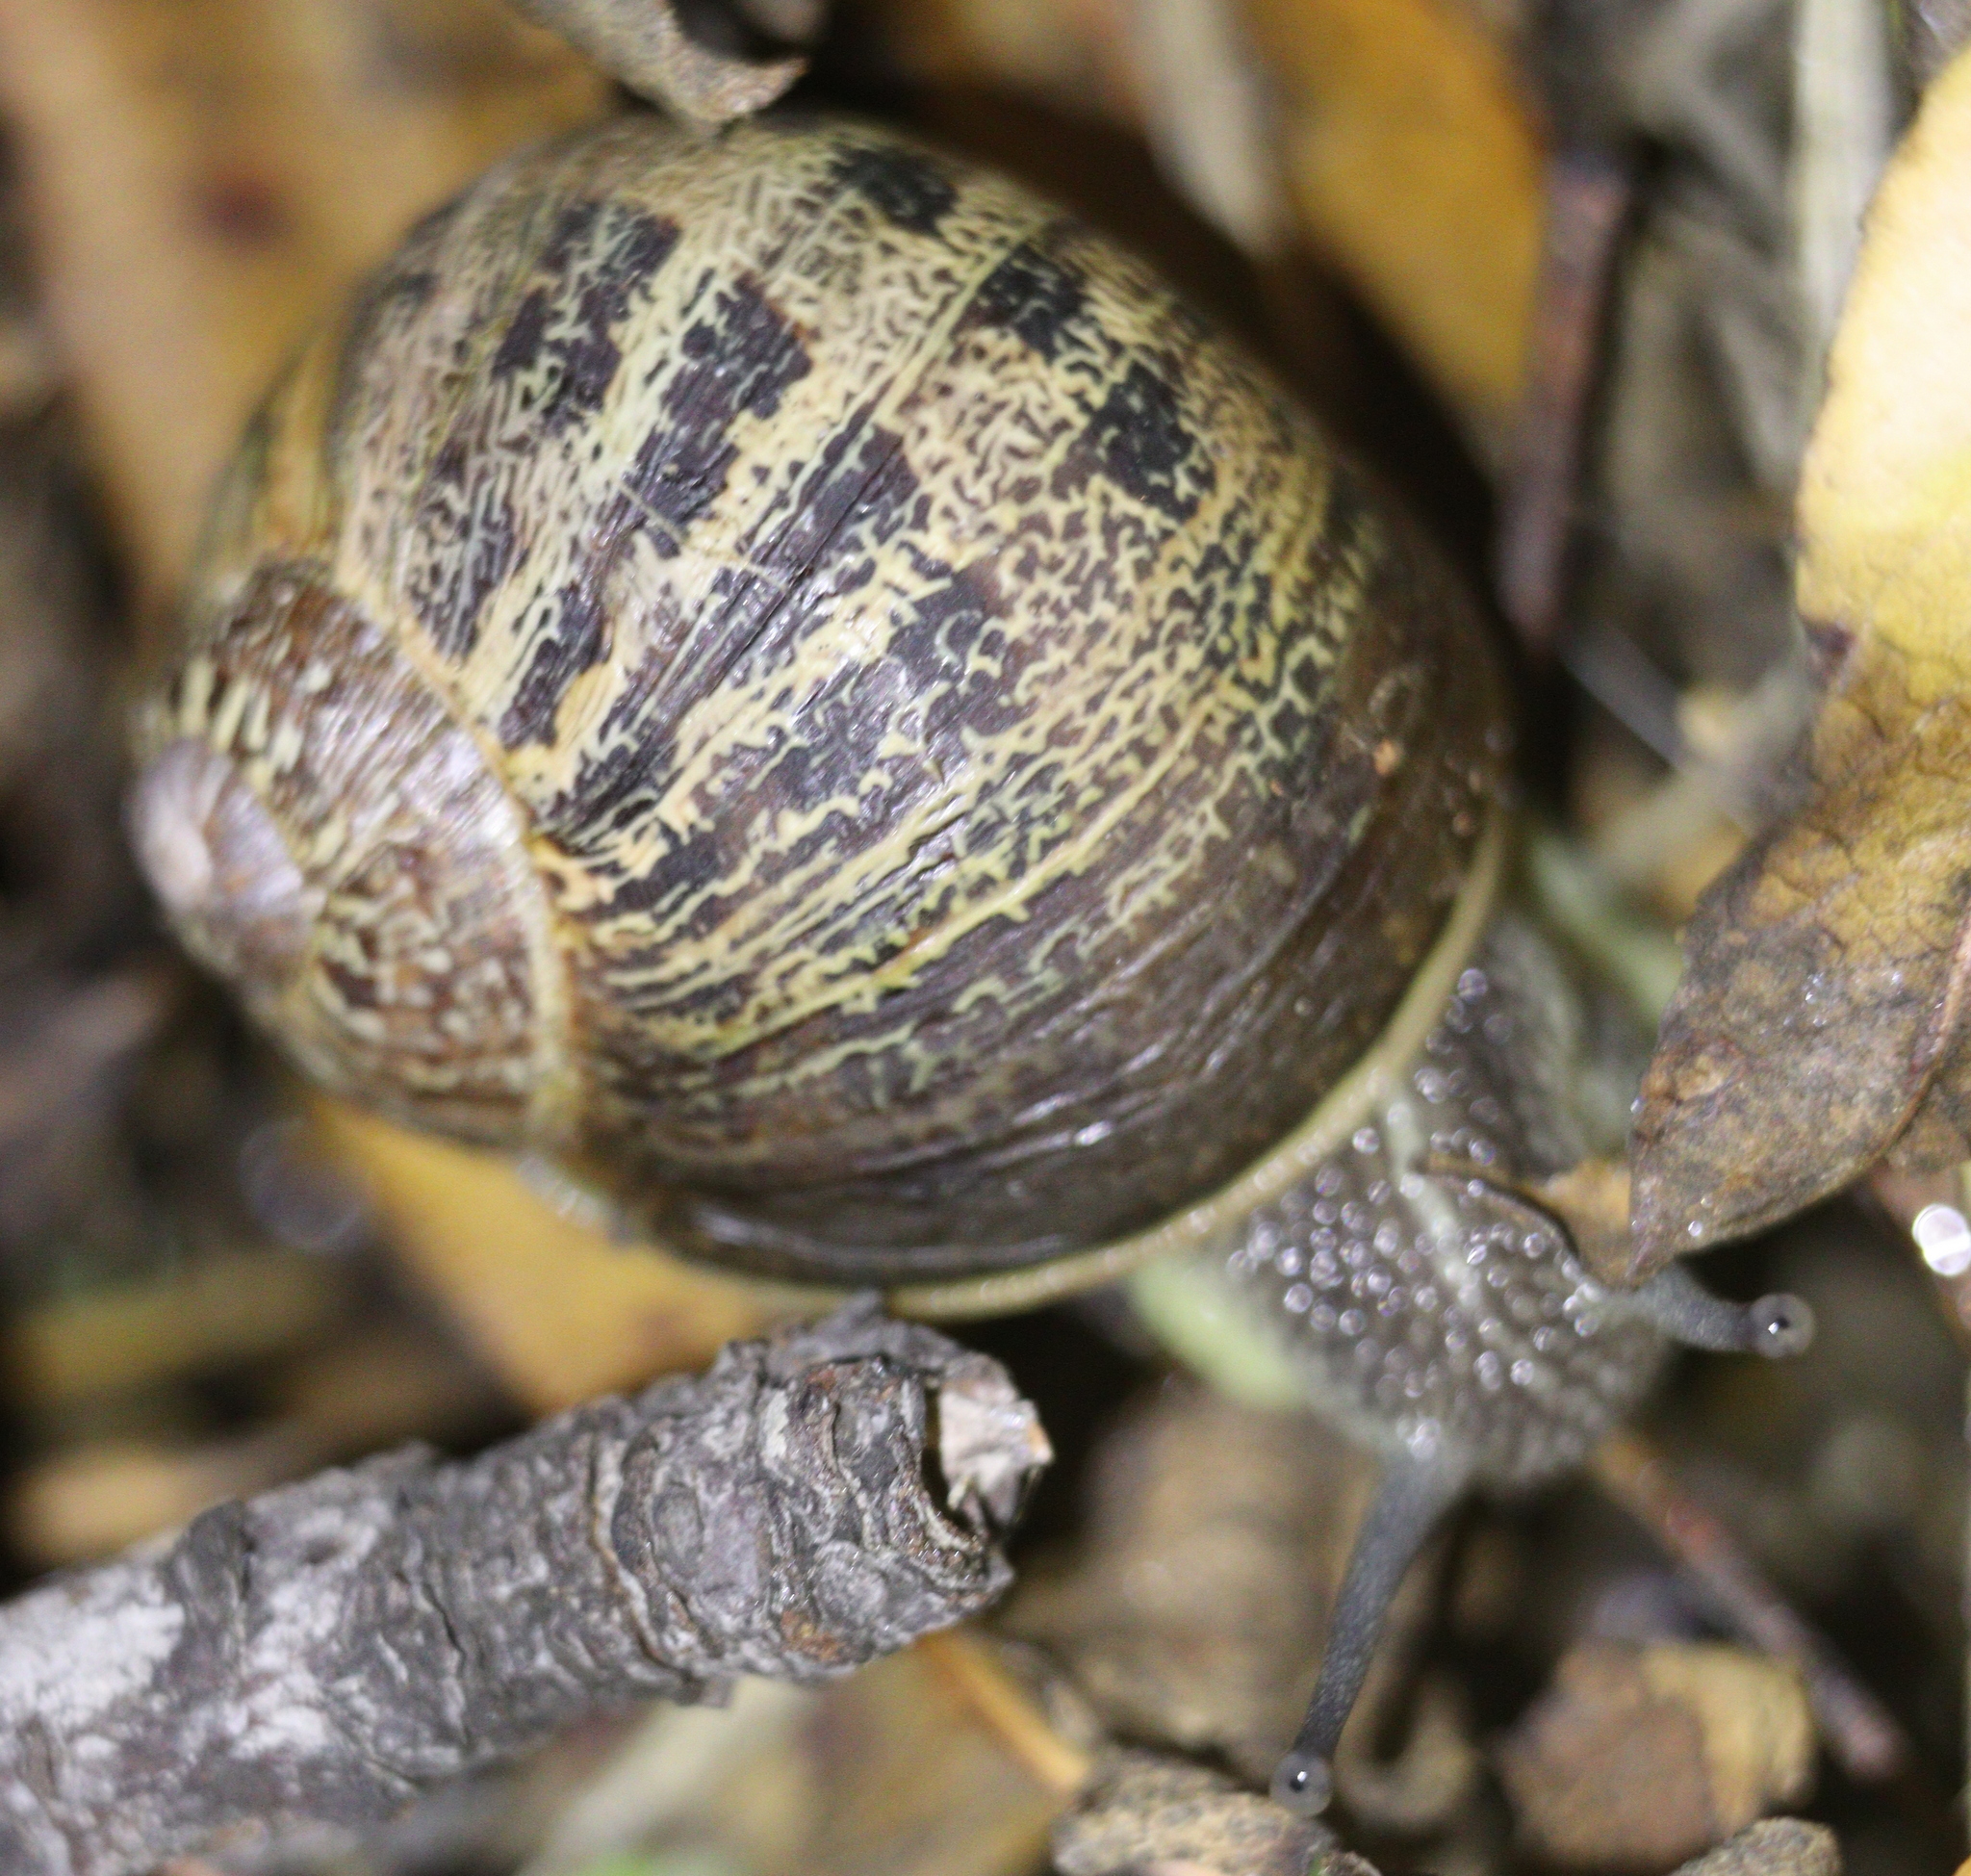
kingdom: Animalia
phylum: Mollusca
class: Gastropoda
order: Stylommatophora
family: Helicidae
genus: Cornu
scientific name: Cornu aspersum
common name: Brown garden snail
